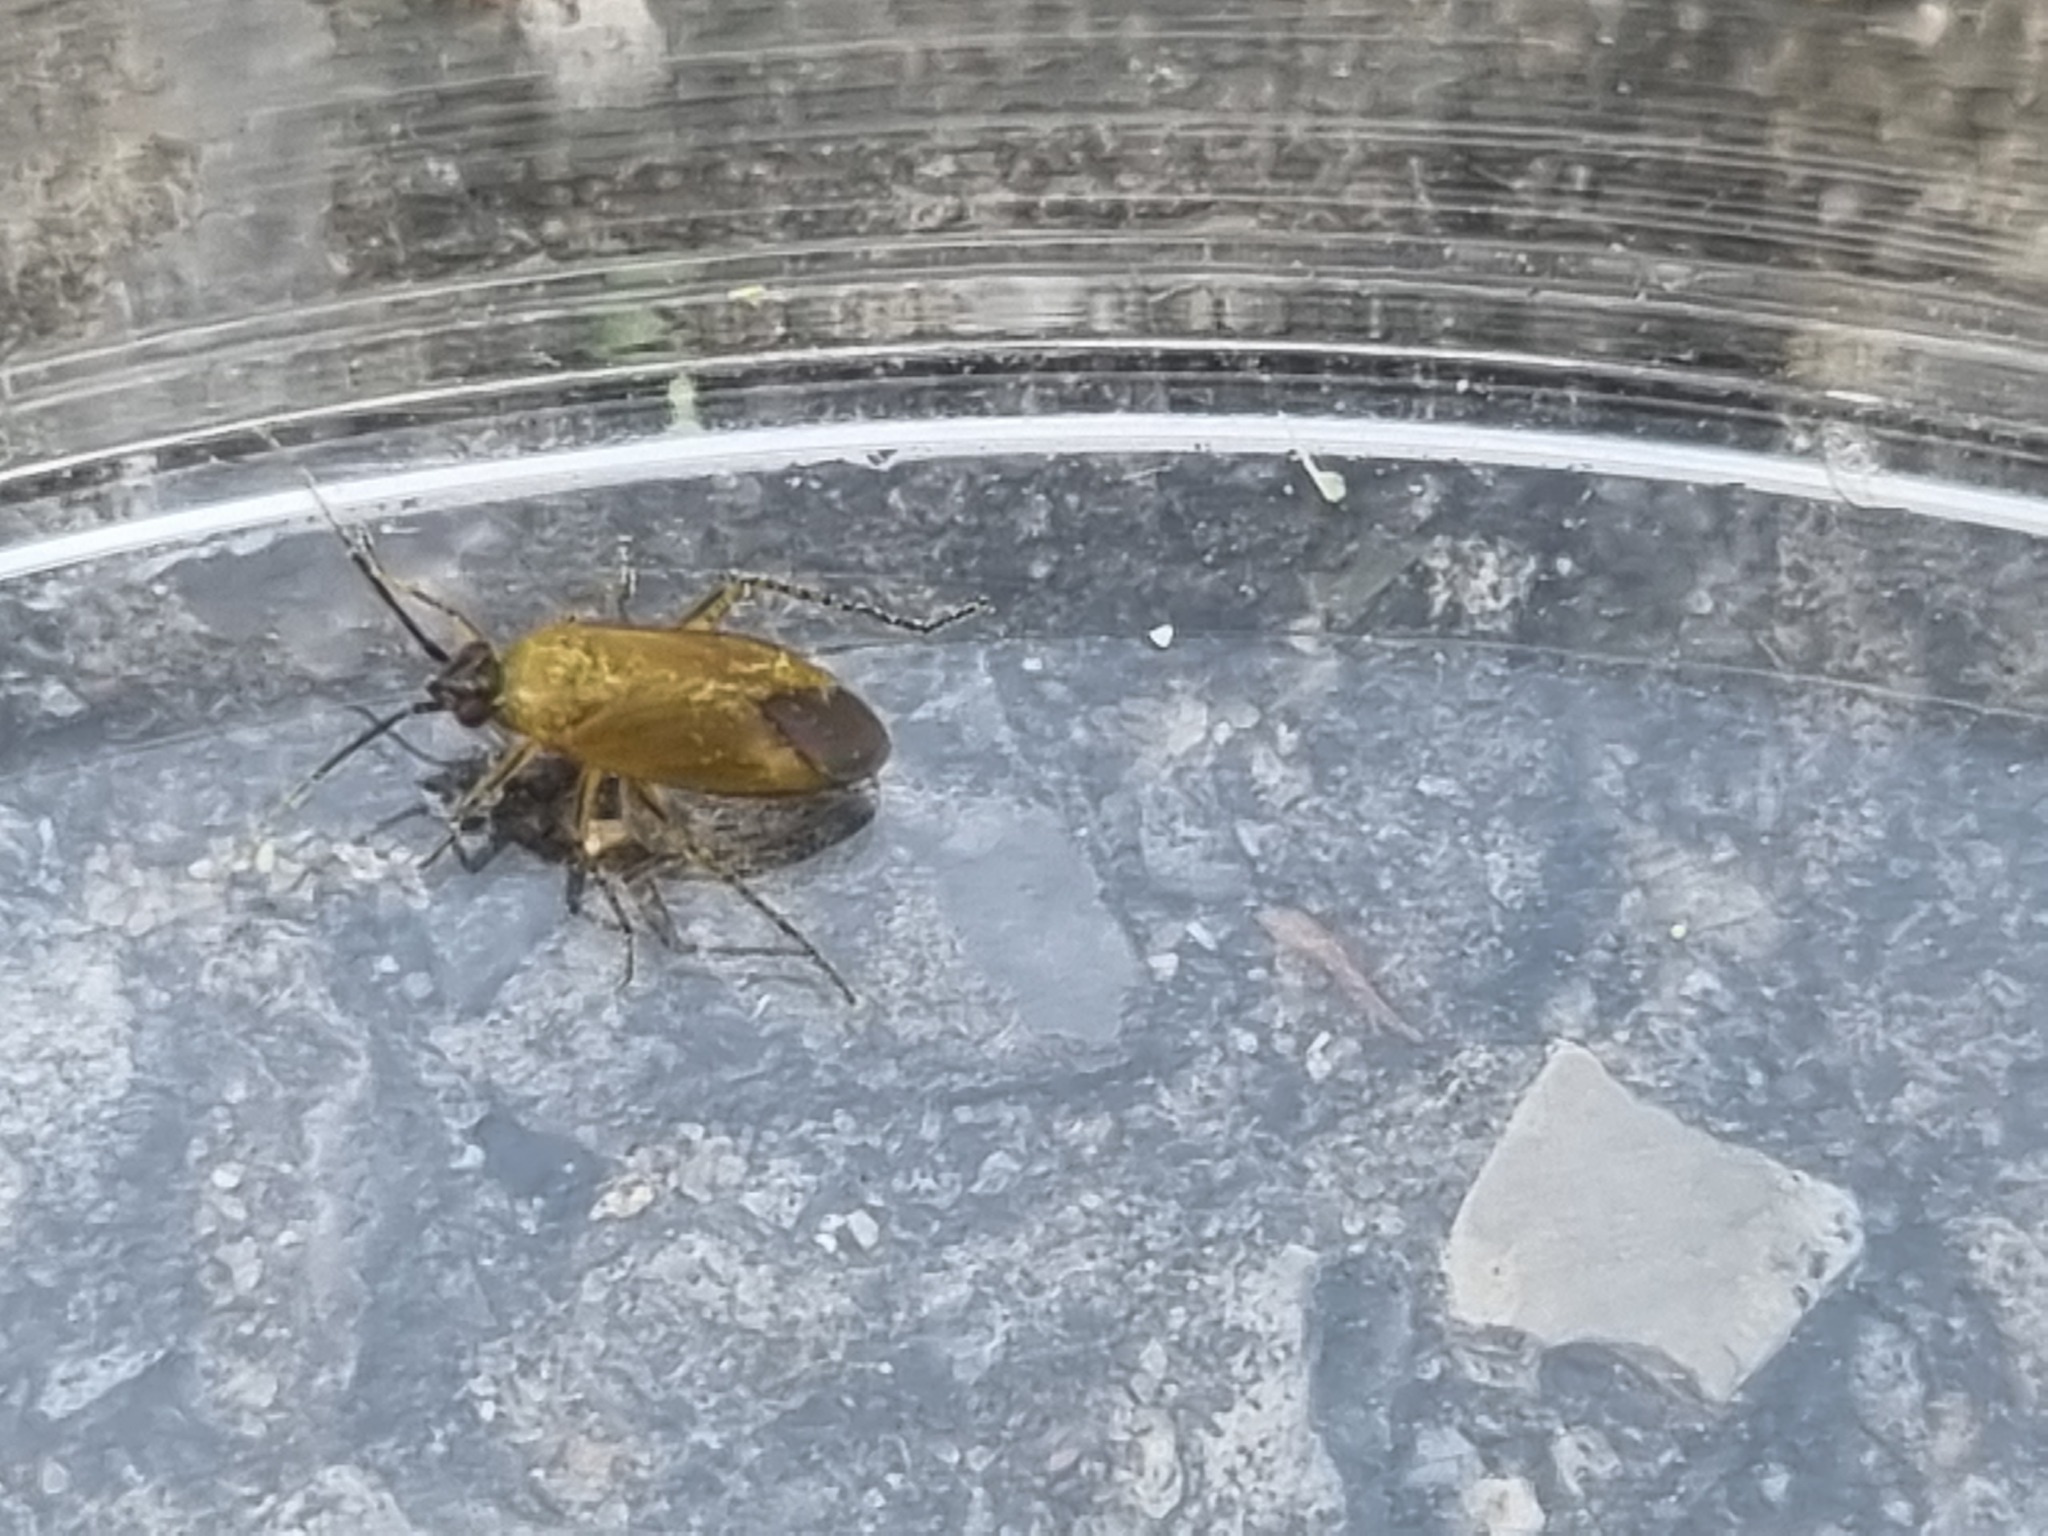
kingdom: Animalia
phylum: Arthropoda
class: Insecta
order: Hemiptera
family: Miridae
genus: Plagiognathus
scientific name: Plagiognathus arbustorum
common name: Plant bug
